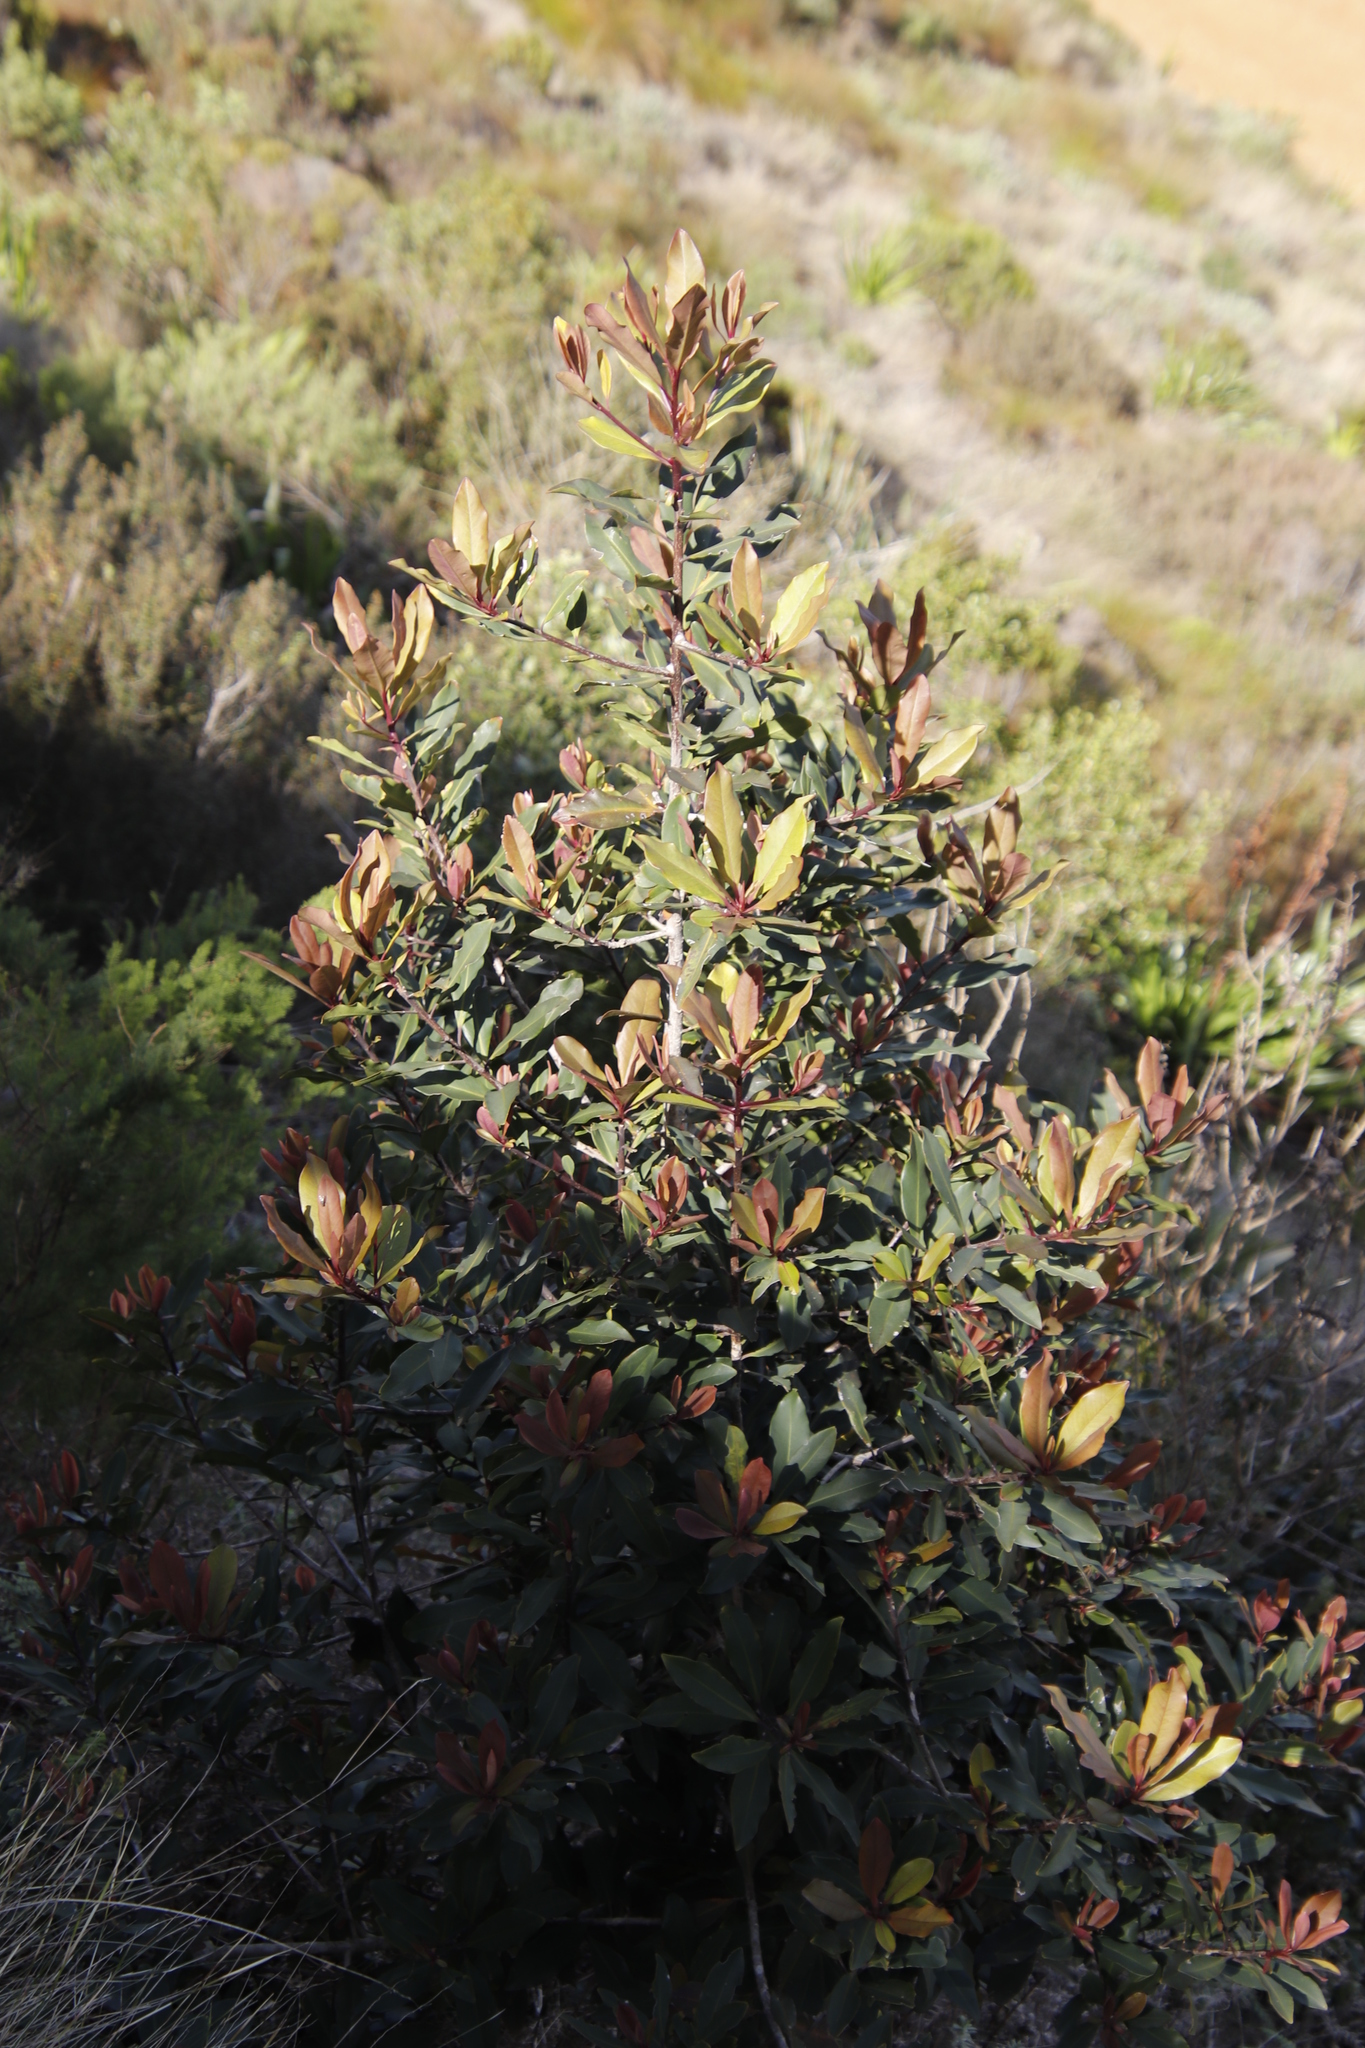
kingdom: Plantae
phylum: Tracheophyta
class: Magnoliopsida
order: Ericales
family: Primulaceae
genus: Myrsine
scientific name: Myrsine melanophloeos
